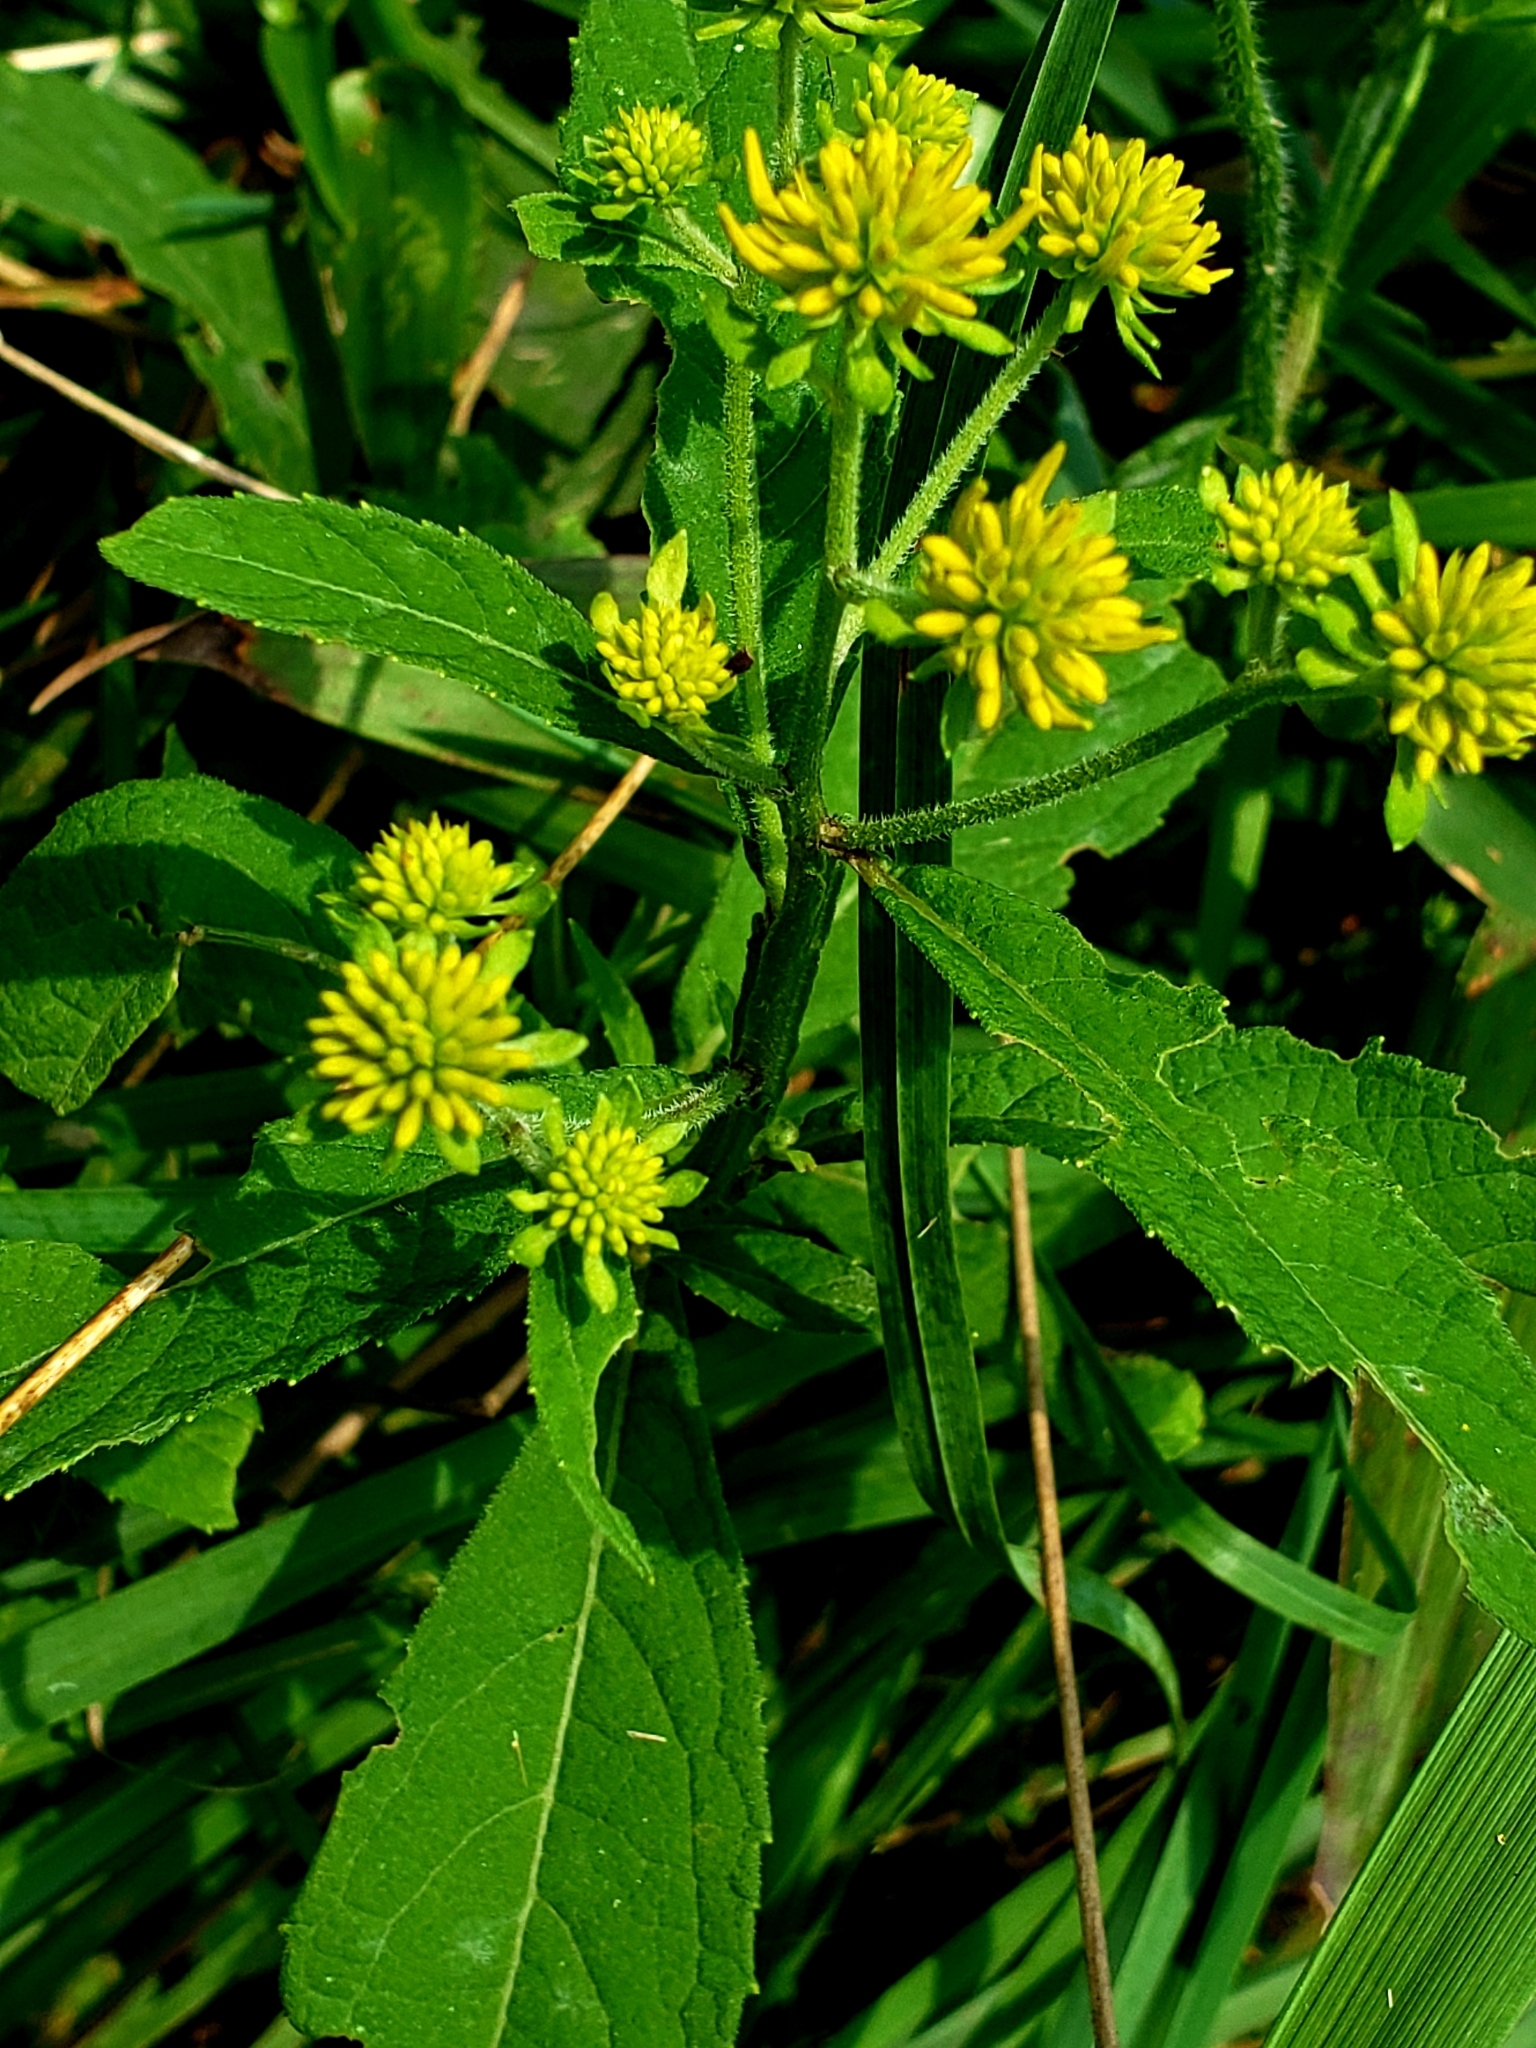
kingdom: Plantae
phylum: Tracheophyta
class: Magnoliopsida
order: Asterales
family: Asteraceae
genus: Verbesina
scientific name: Verbesina alternifolia
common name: Wingstem
